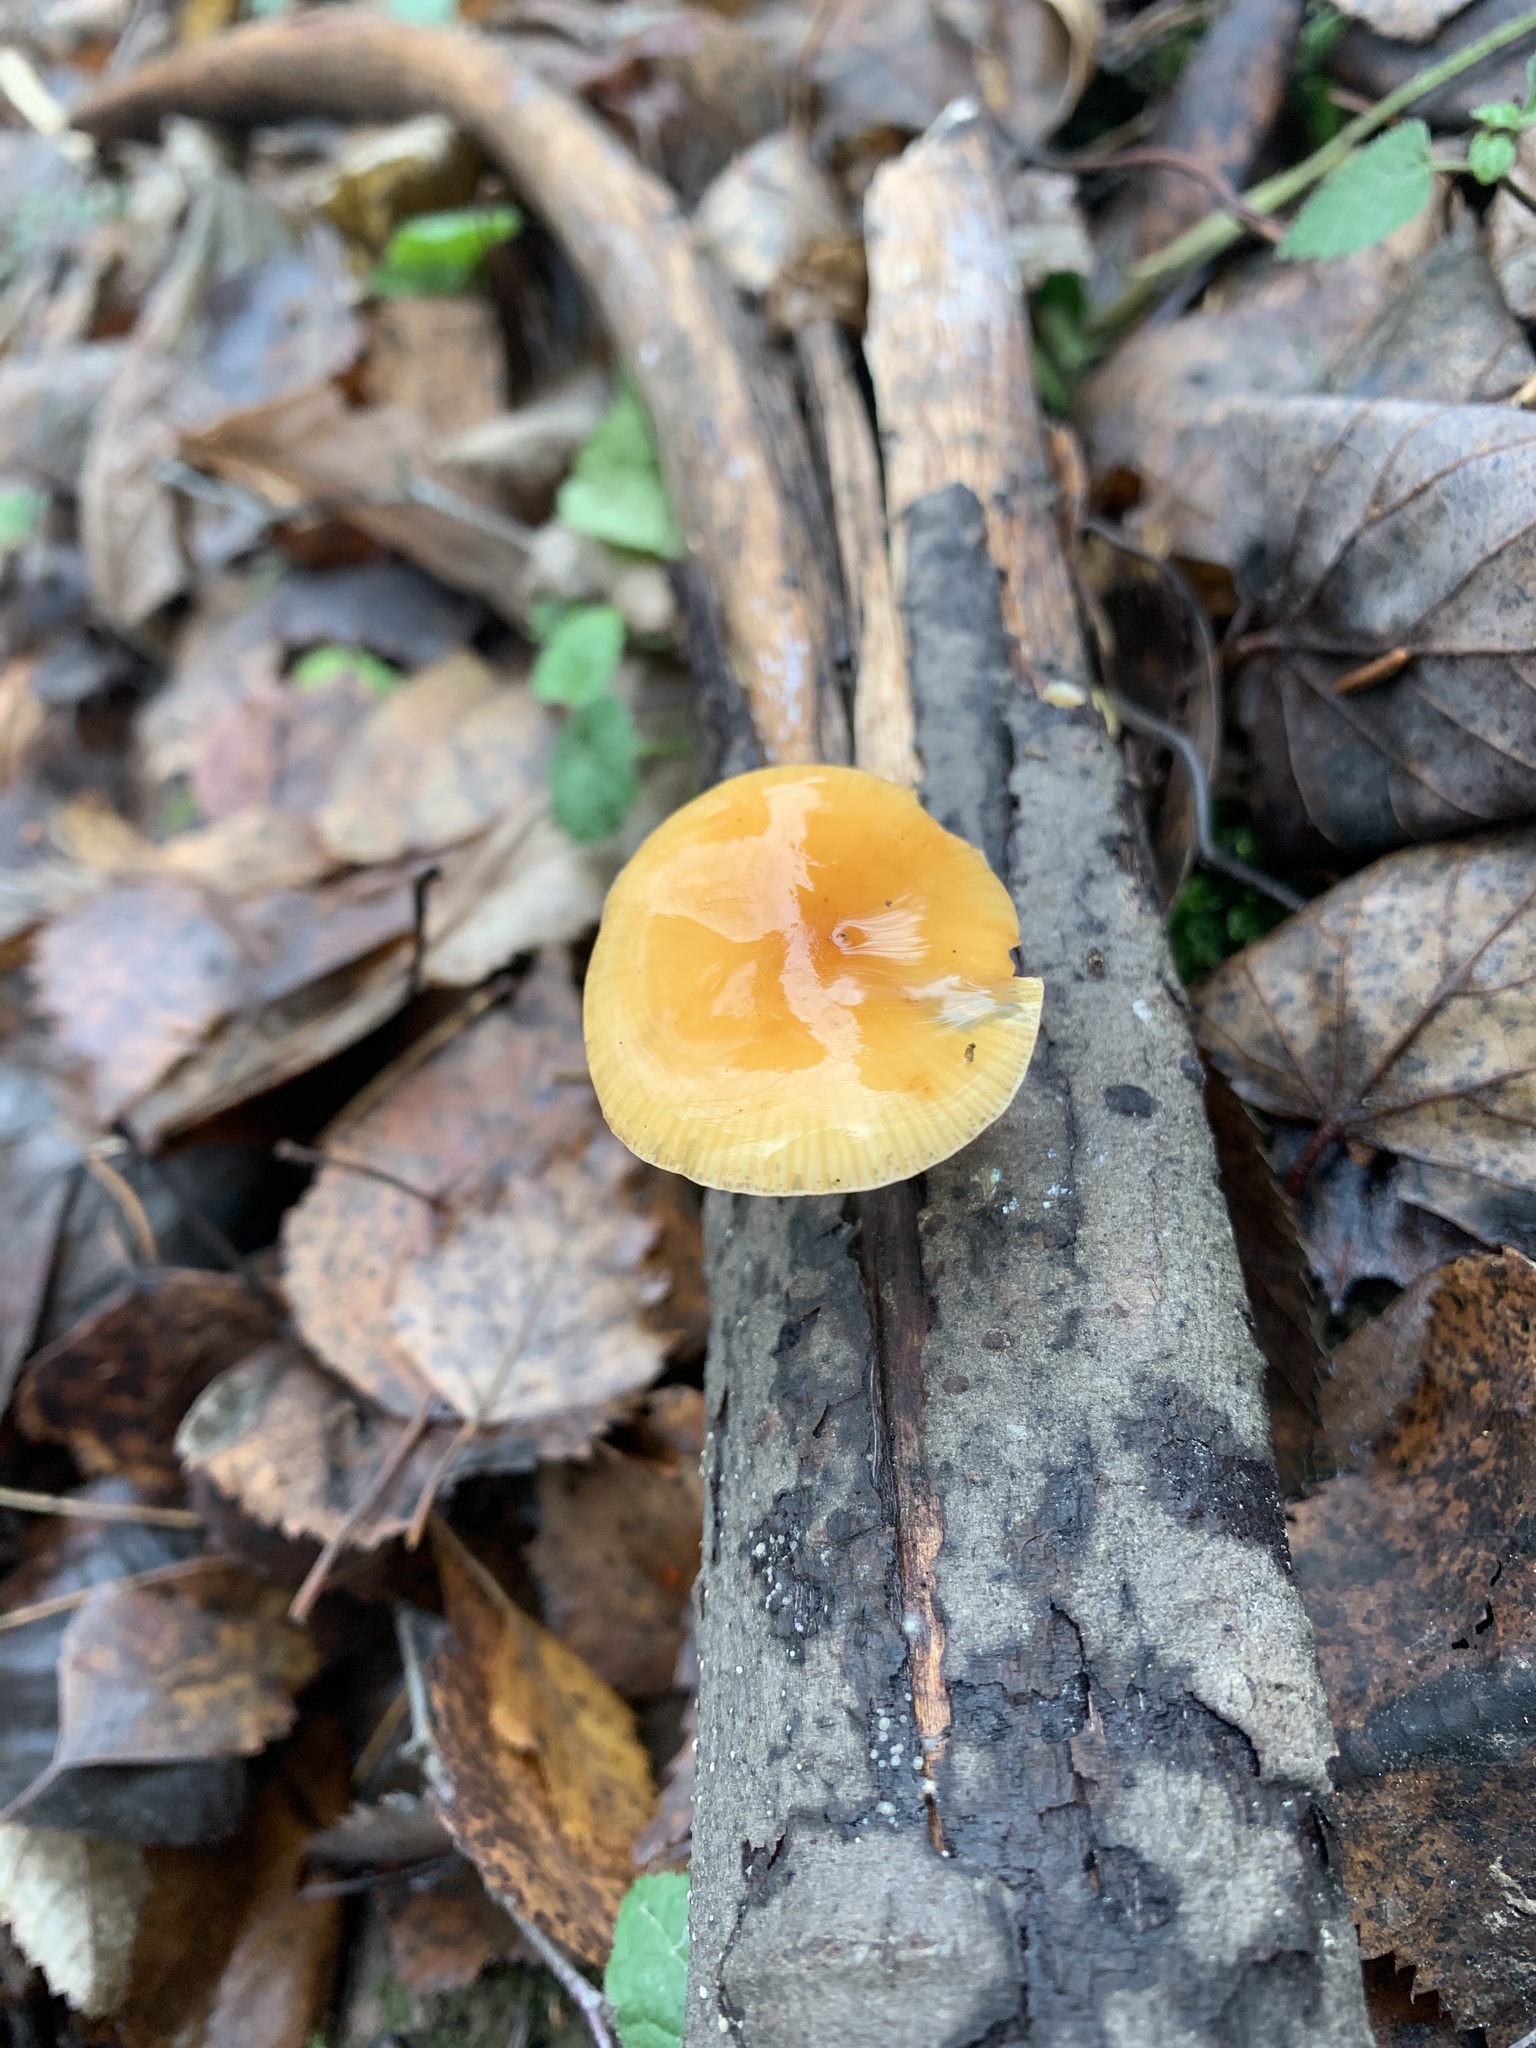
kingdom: Fungi
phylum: Basidiomycota
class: Agaricomycetes
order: Agaricales
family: Physalacriaceae
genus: Flammulina
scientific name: Flammulina
